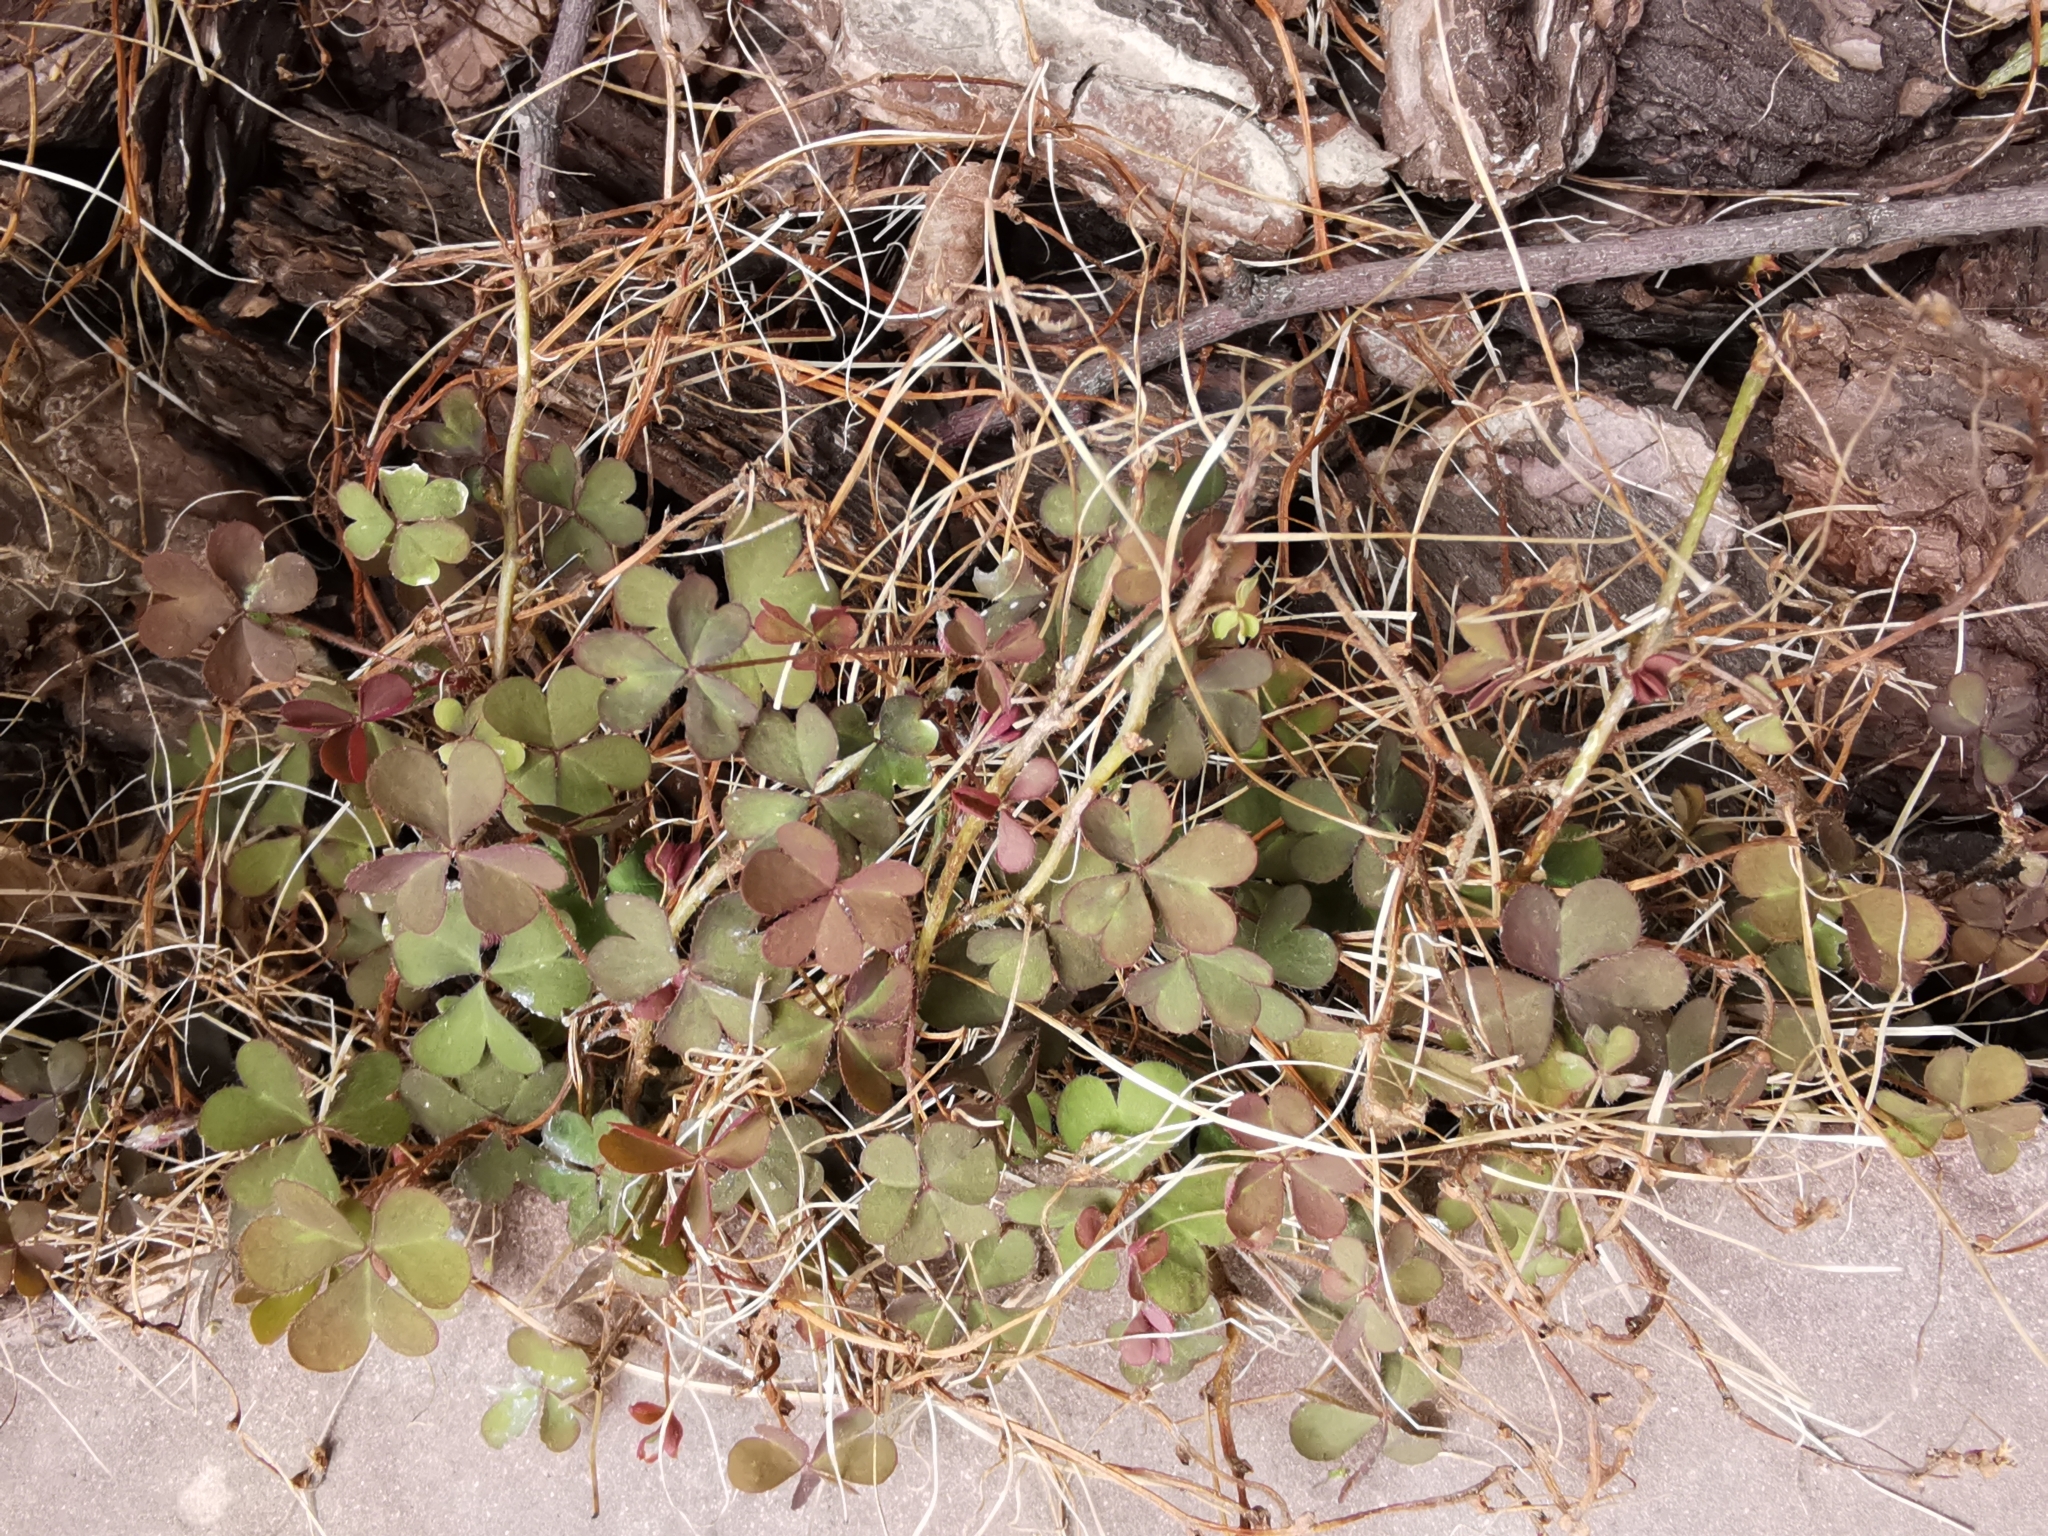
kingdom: Plantae
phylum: Tracheophyta
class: Magnoliopsida
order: Oxalidales
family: Oxalidaceae
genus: Oxalis
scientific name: Oxalis corniculata
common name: Procumbent yellow-sorrel
